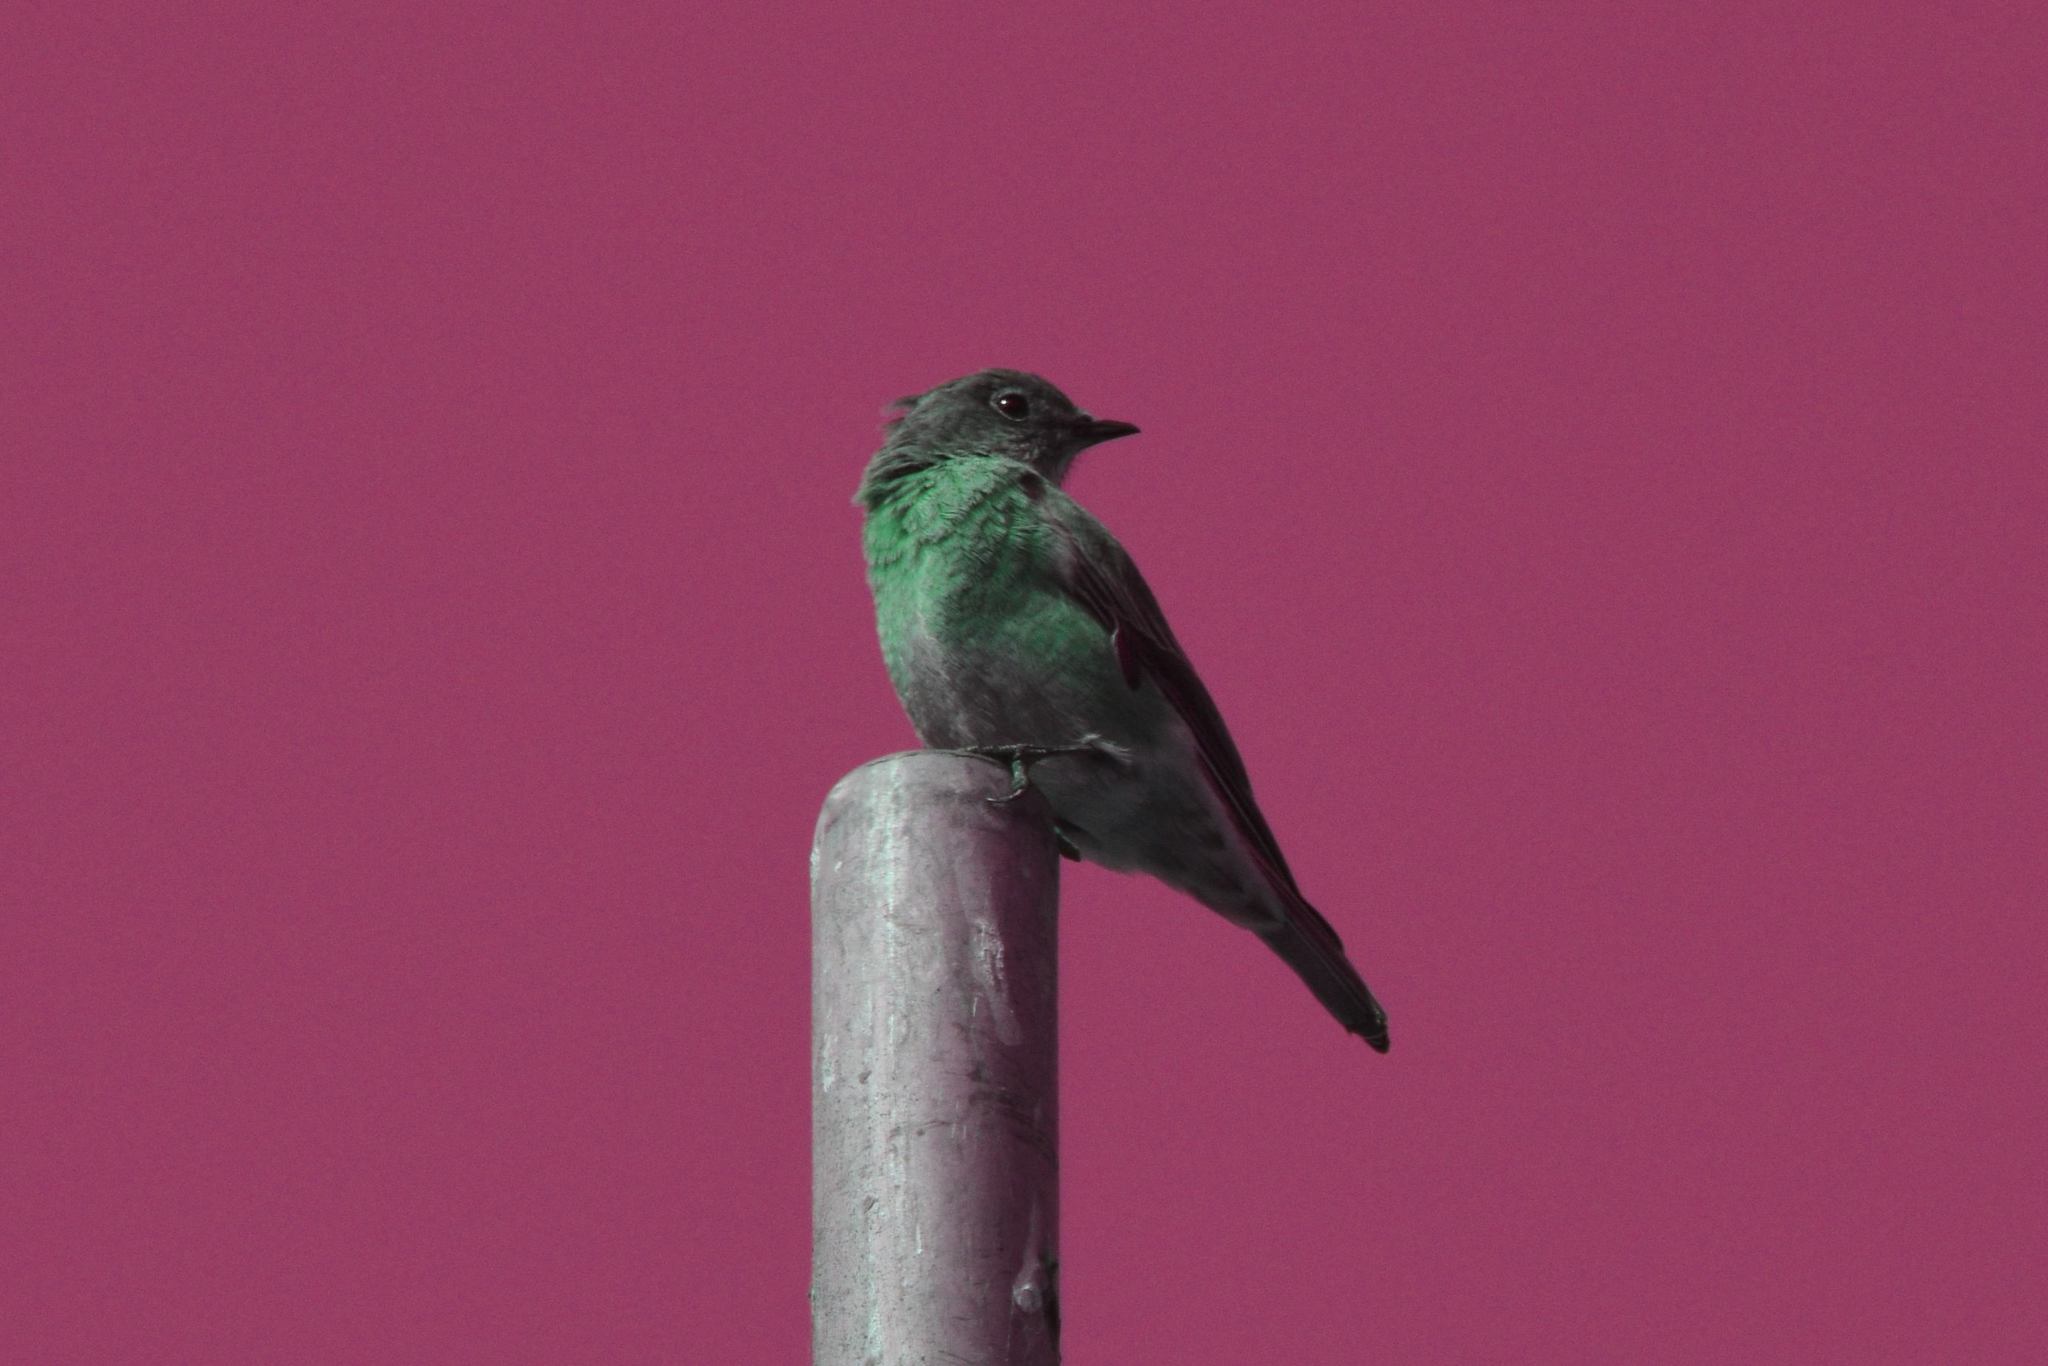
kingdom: Animalia
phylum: Chordata
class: Aves
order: Passeriformes
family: Turdidae
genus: Sialia
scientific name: Sialia mexicana
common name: Western bluebird
